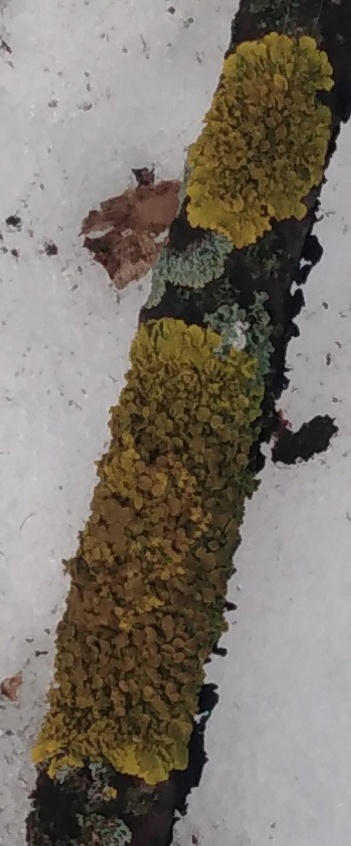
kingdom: Fungi
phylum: Ascomycota
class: Lecanoromycetes
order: Teloschistales
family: Teloschistaceae
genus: Xanthoria
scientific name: Xanthoria parietina
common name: Common orange lichen
